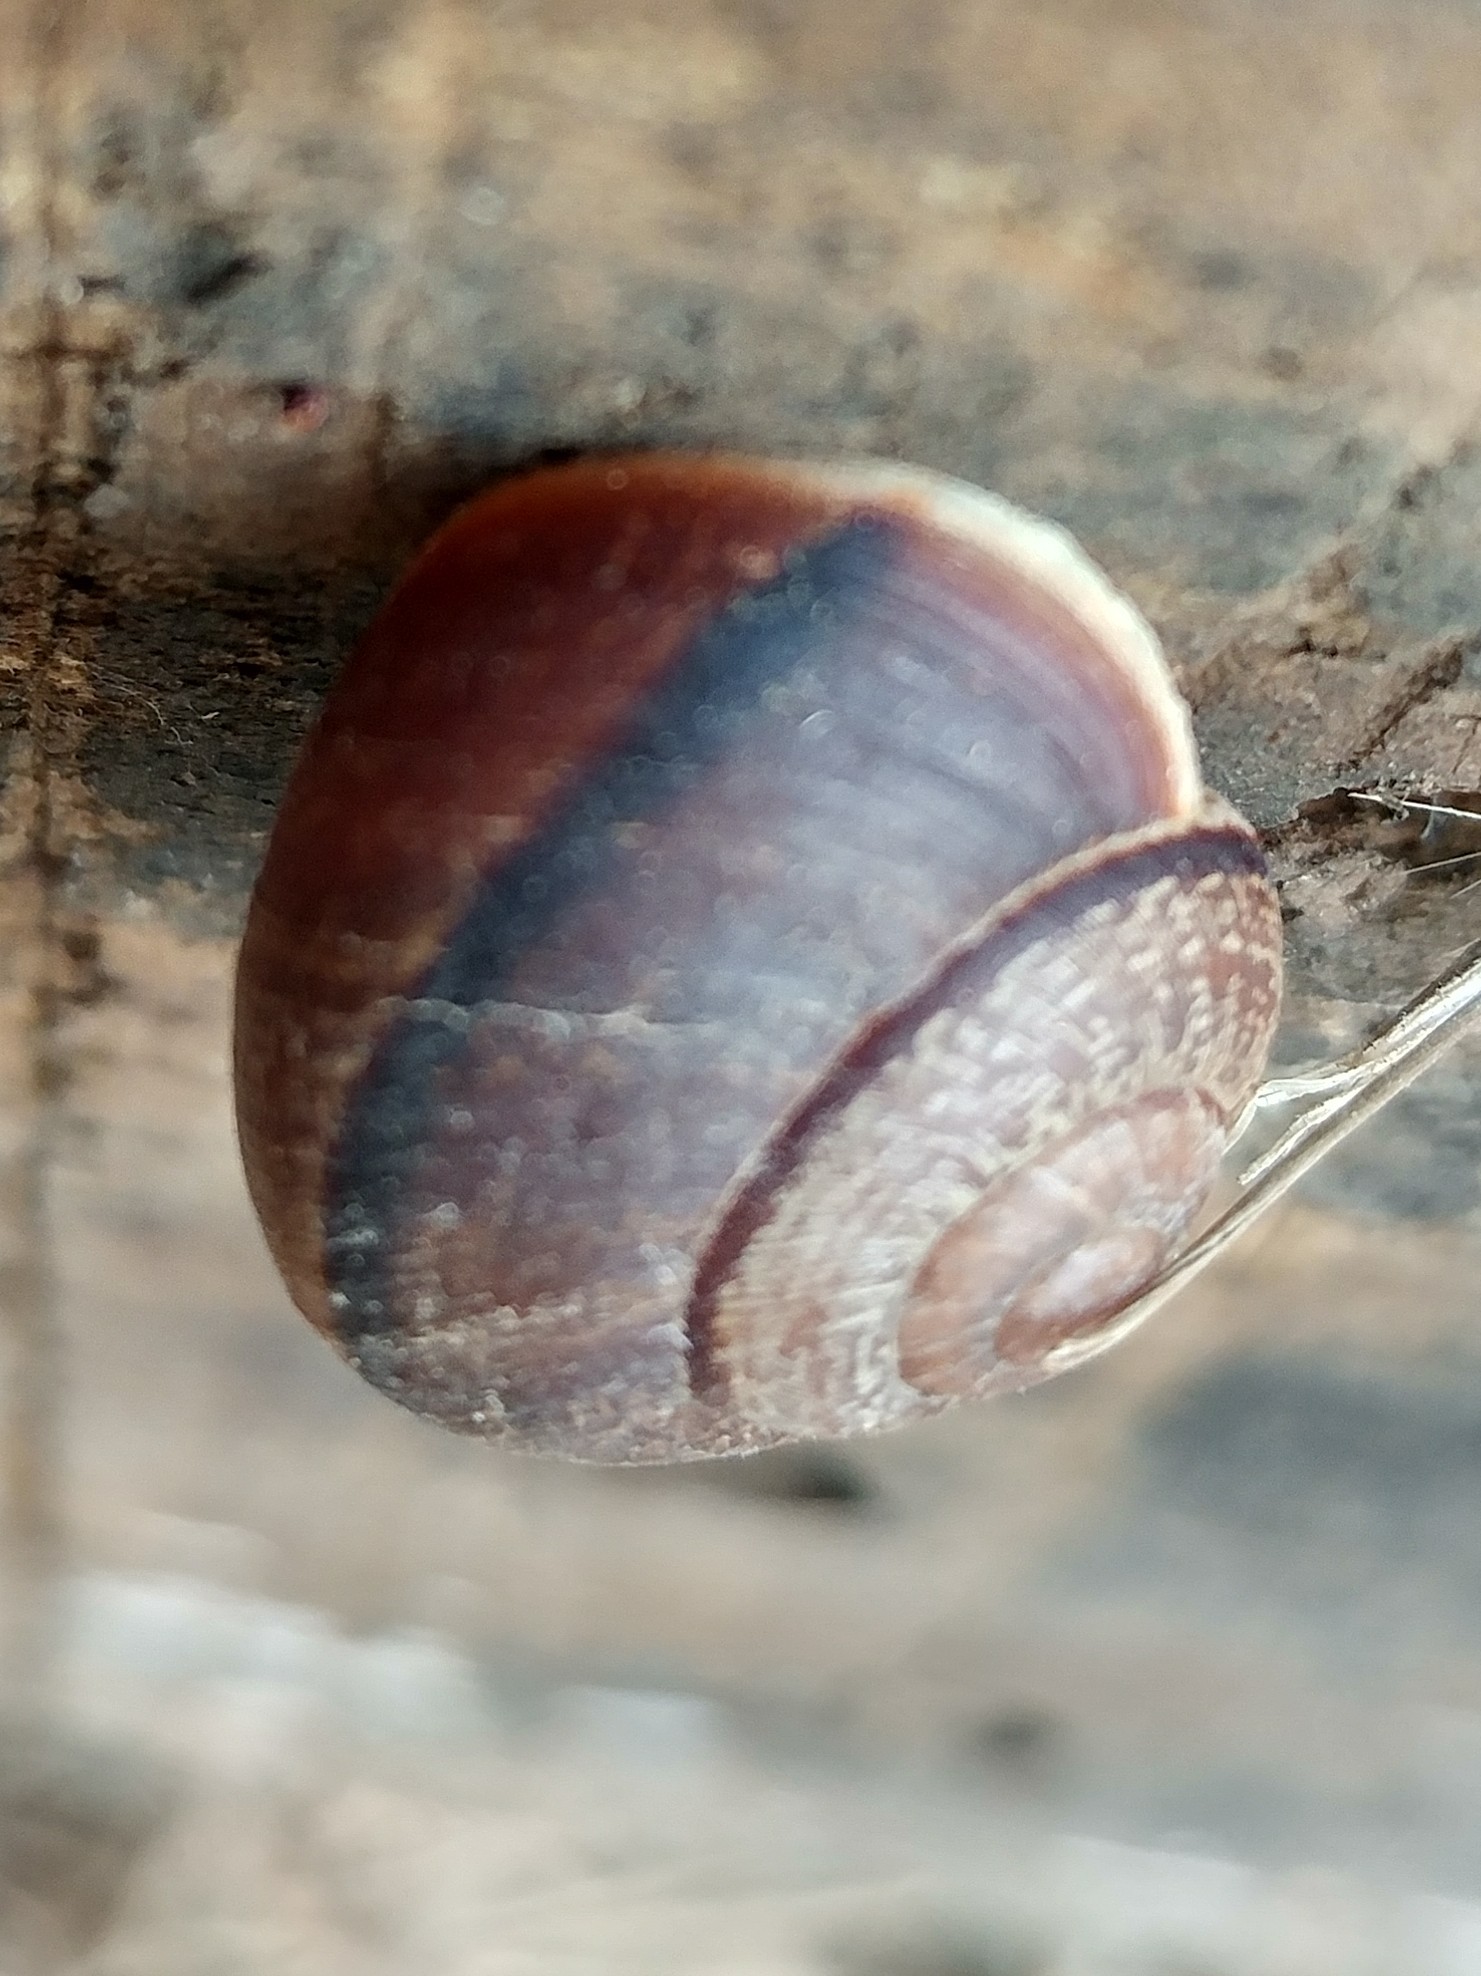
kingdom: Animalia
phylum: Mollusca
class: Gastropoda
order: Stylommatophora
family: Xanthonychidae
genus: Xerarionta
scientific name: Xerarionta redimita
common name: Wreathed cactus snail
